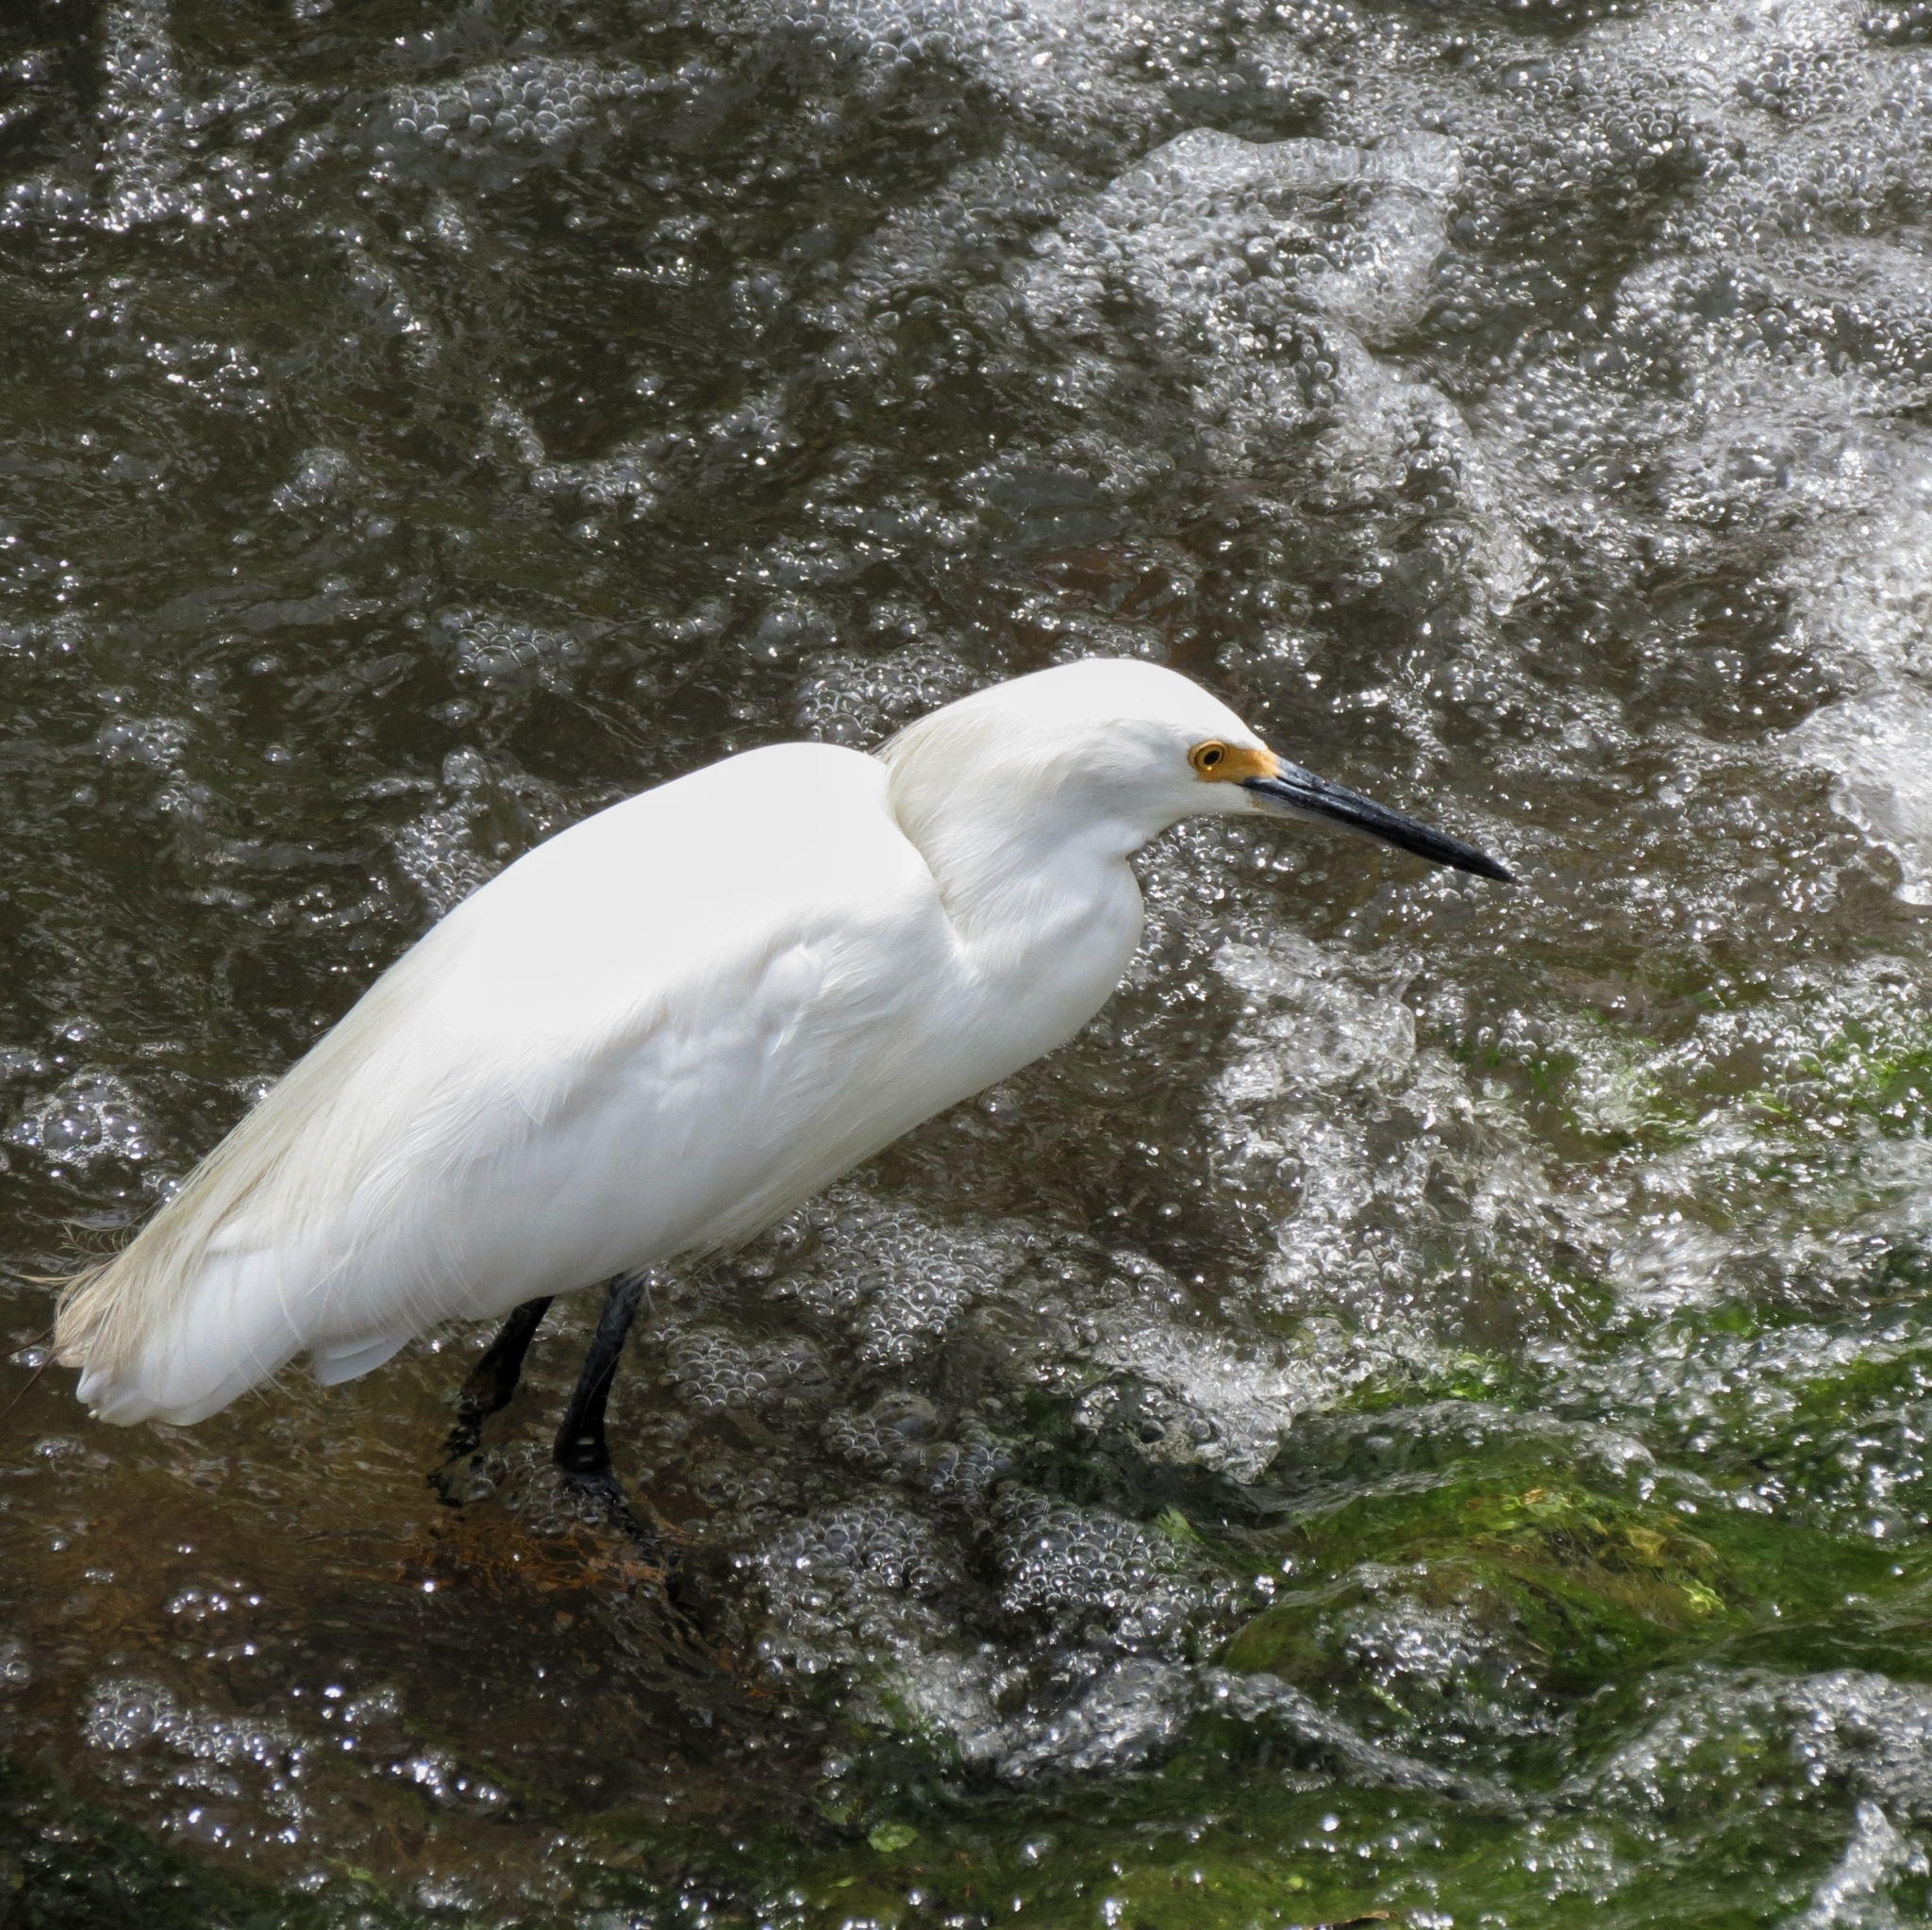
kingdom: Animalia
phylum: Chordata
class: Aves
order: Pelecaniformes
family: Ardeidae
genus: Egretta
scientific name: Egretta thula
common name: Snowy egret
